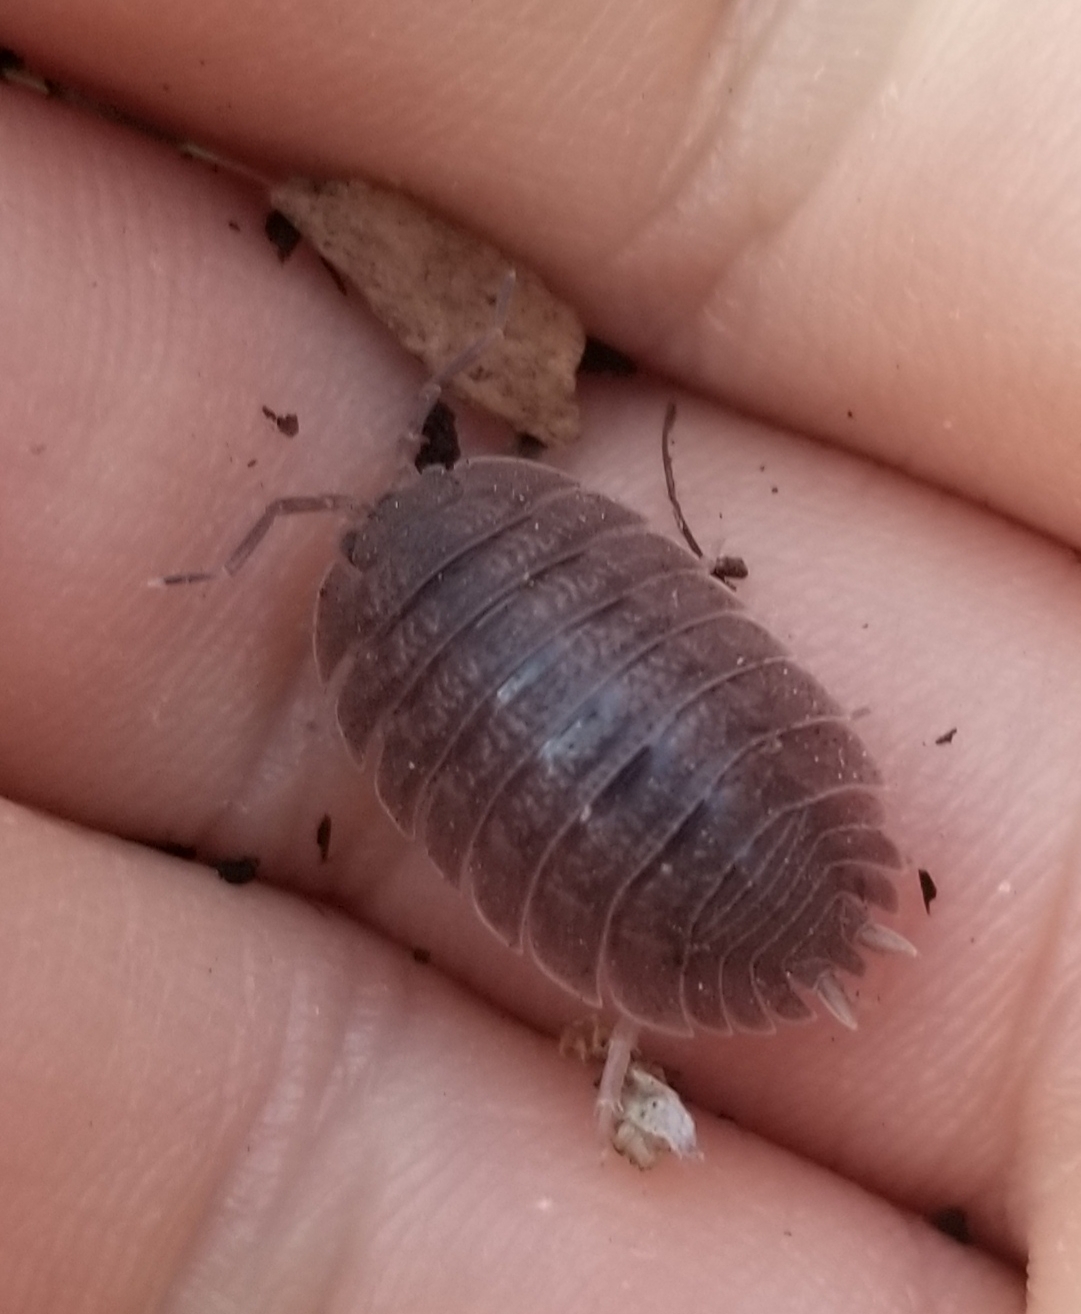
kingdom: Animalia
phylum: Arthropoda
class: Malacostraca
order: Isopoda
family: Porcellionidae
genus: Porcellio
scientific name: Porcellio dilatatus
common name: Isopod
